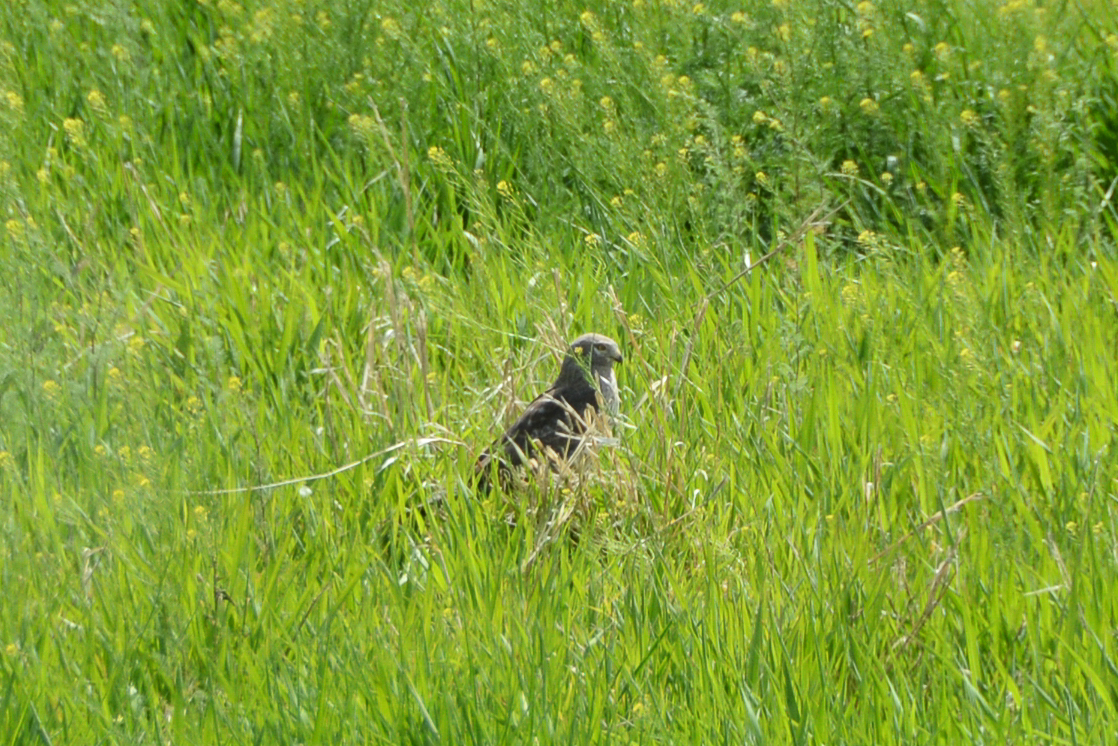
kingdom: Animalia
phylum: Chordata
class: Aves
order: Accipitriformes
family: Accipitridae
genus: Circus
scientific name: Circus cyaneus
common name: Hen harrier
